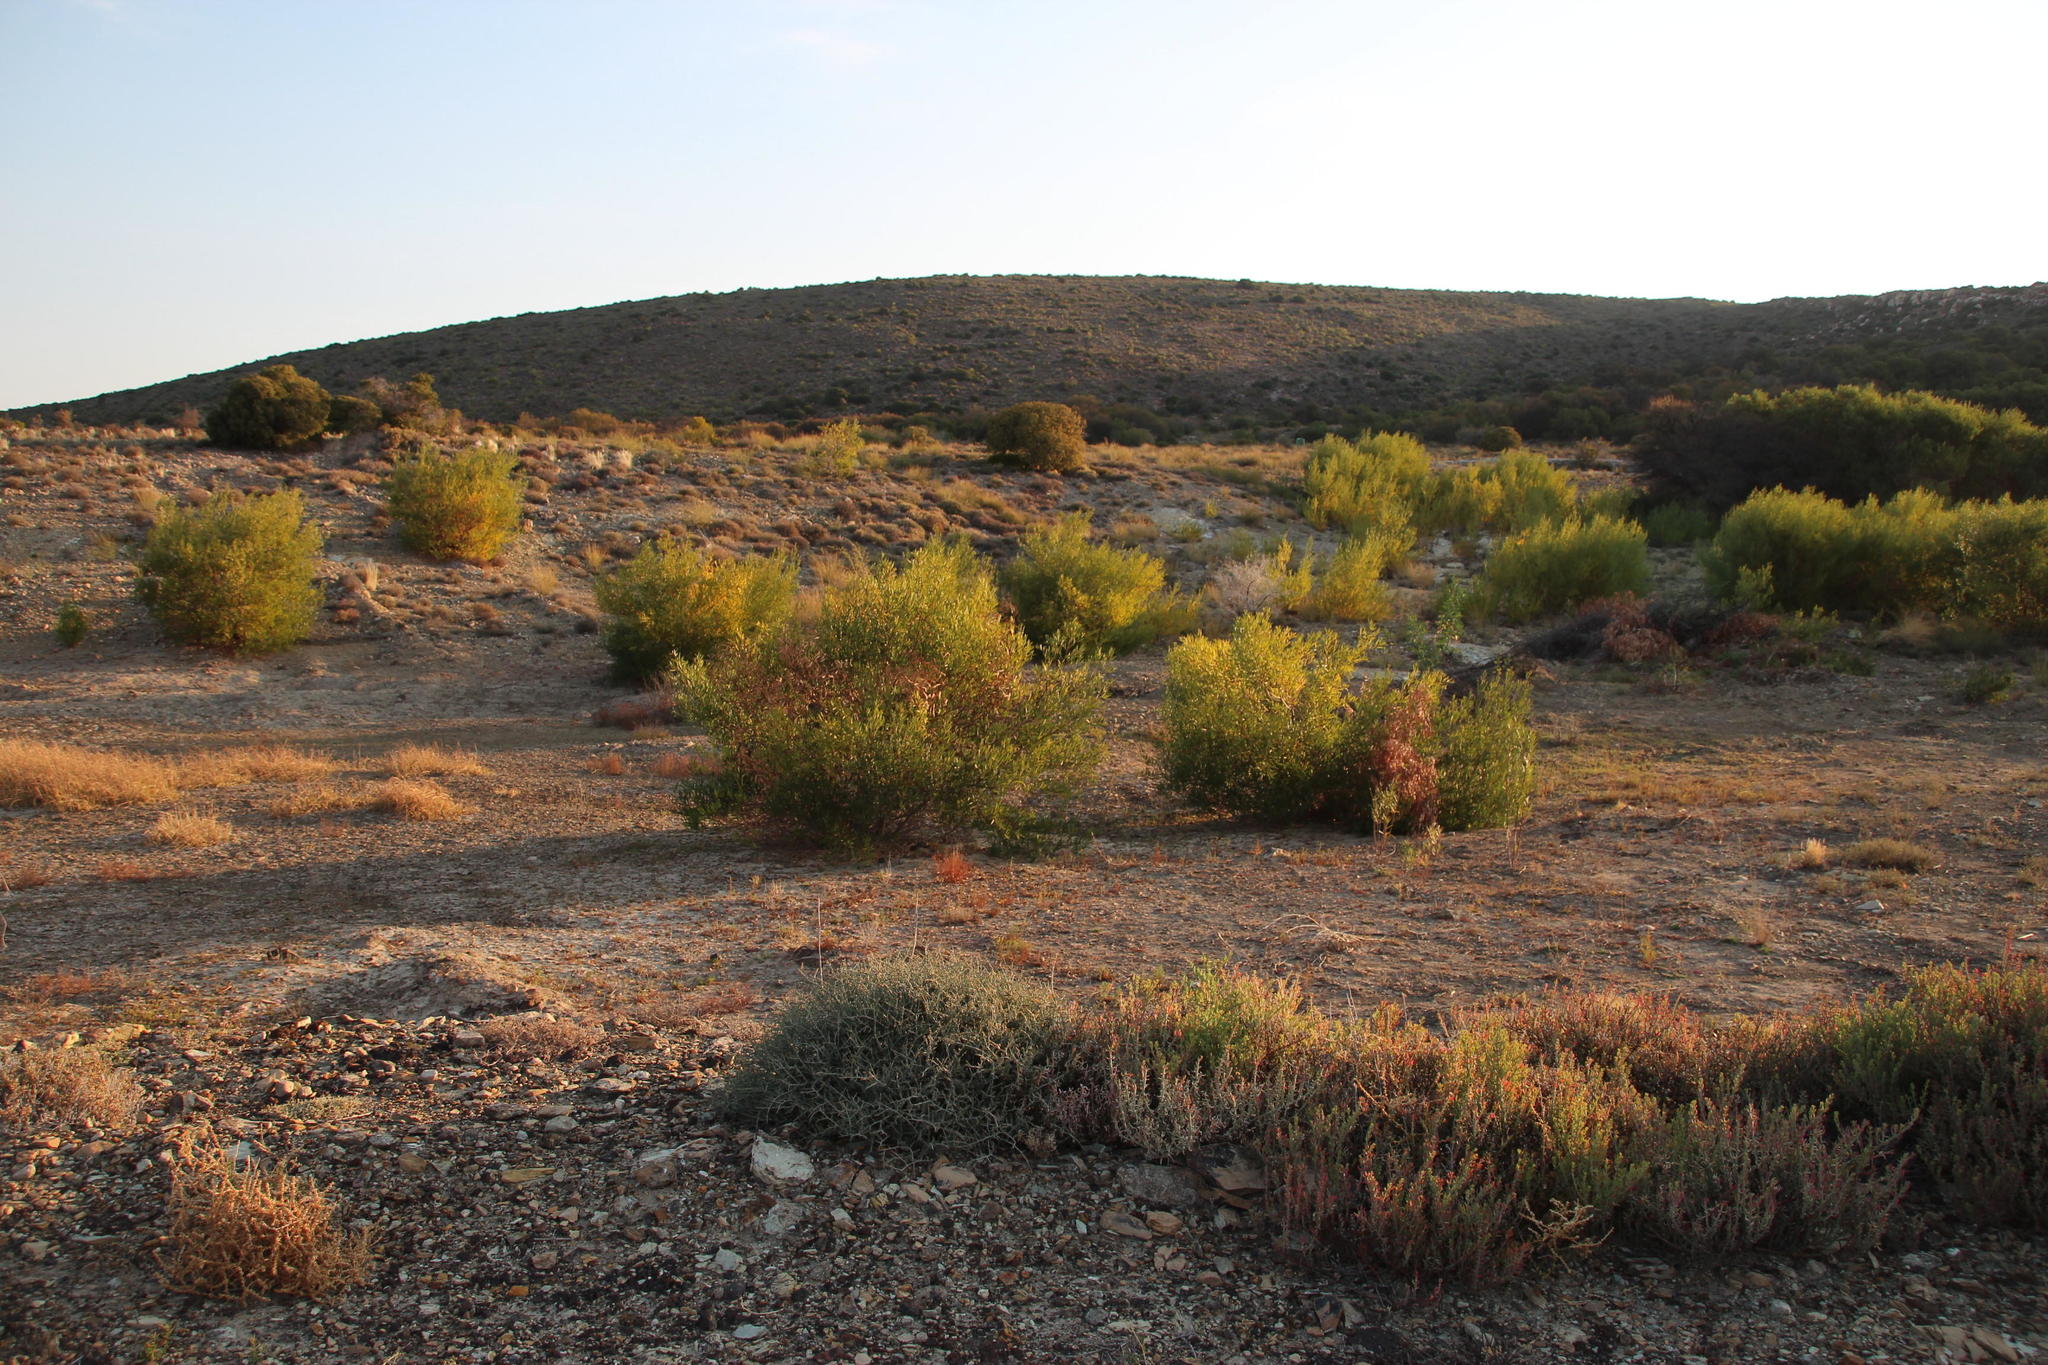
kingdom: Plantae
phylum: Tracheophyta
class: Magnoliopsida
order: Fabales
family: Fabaceae
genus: Acacia
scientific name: Acacia cyclops
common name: Coastal wattle
